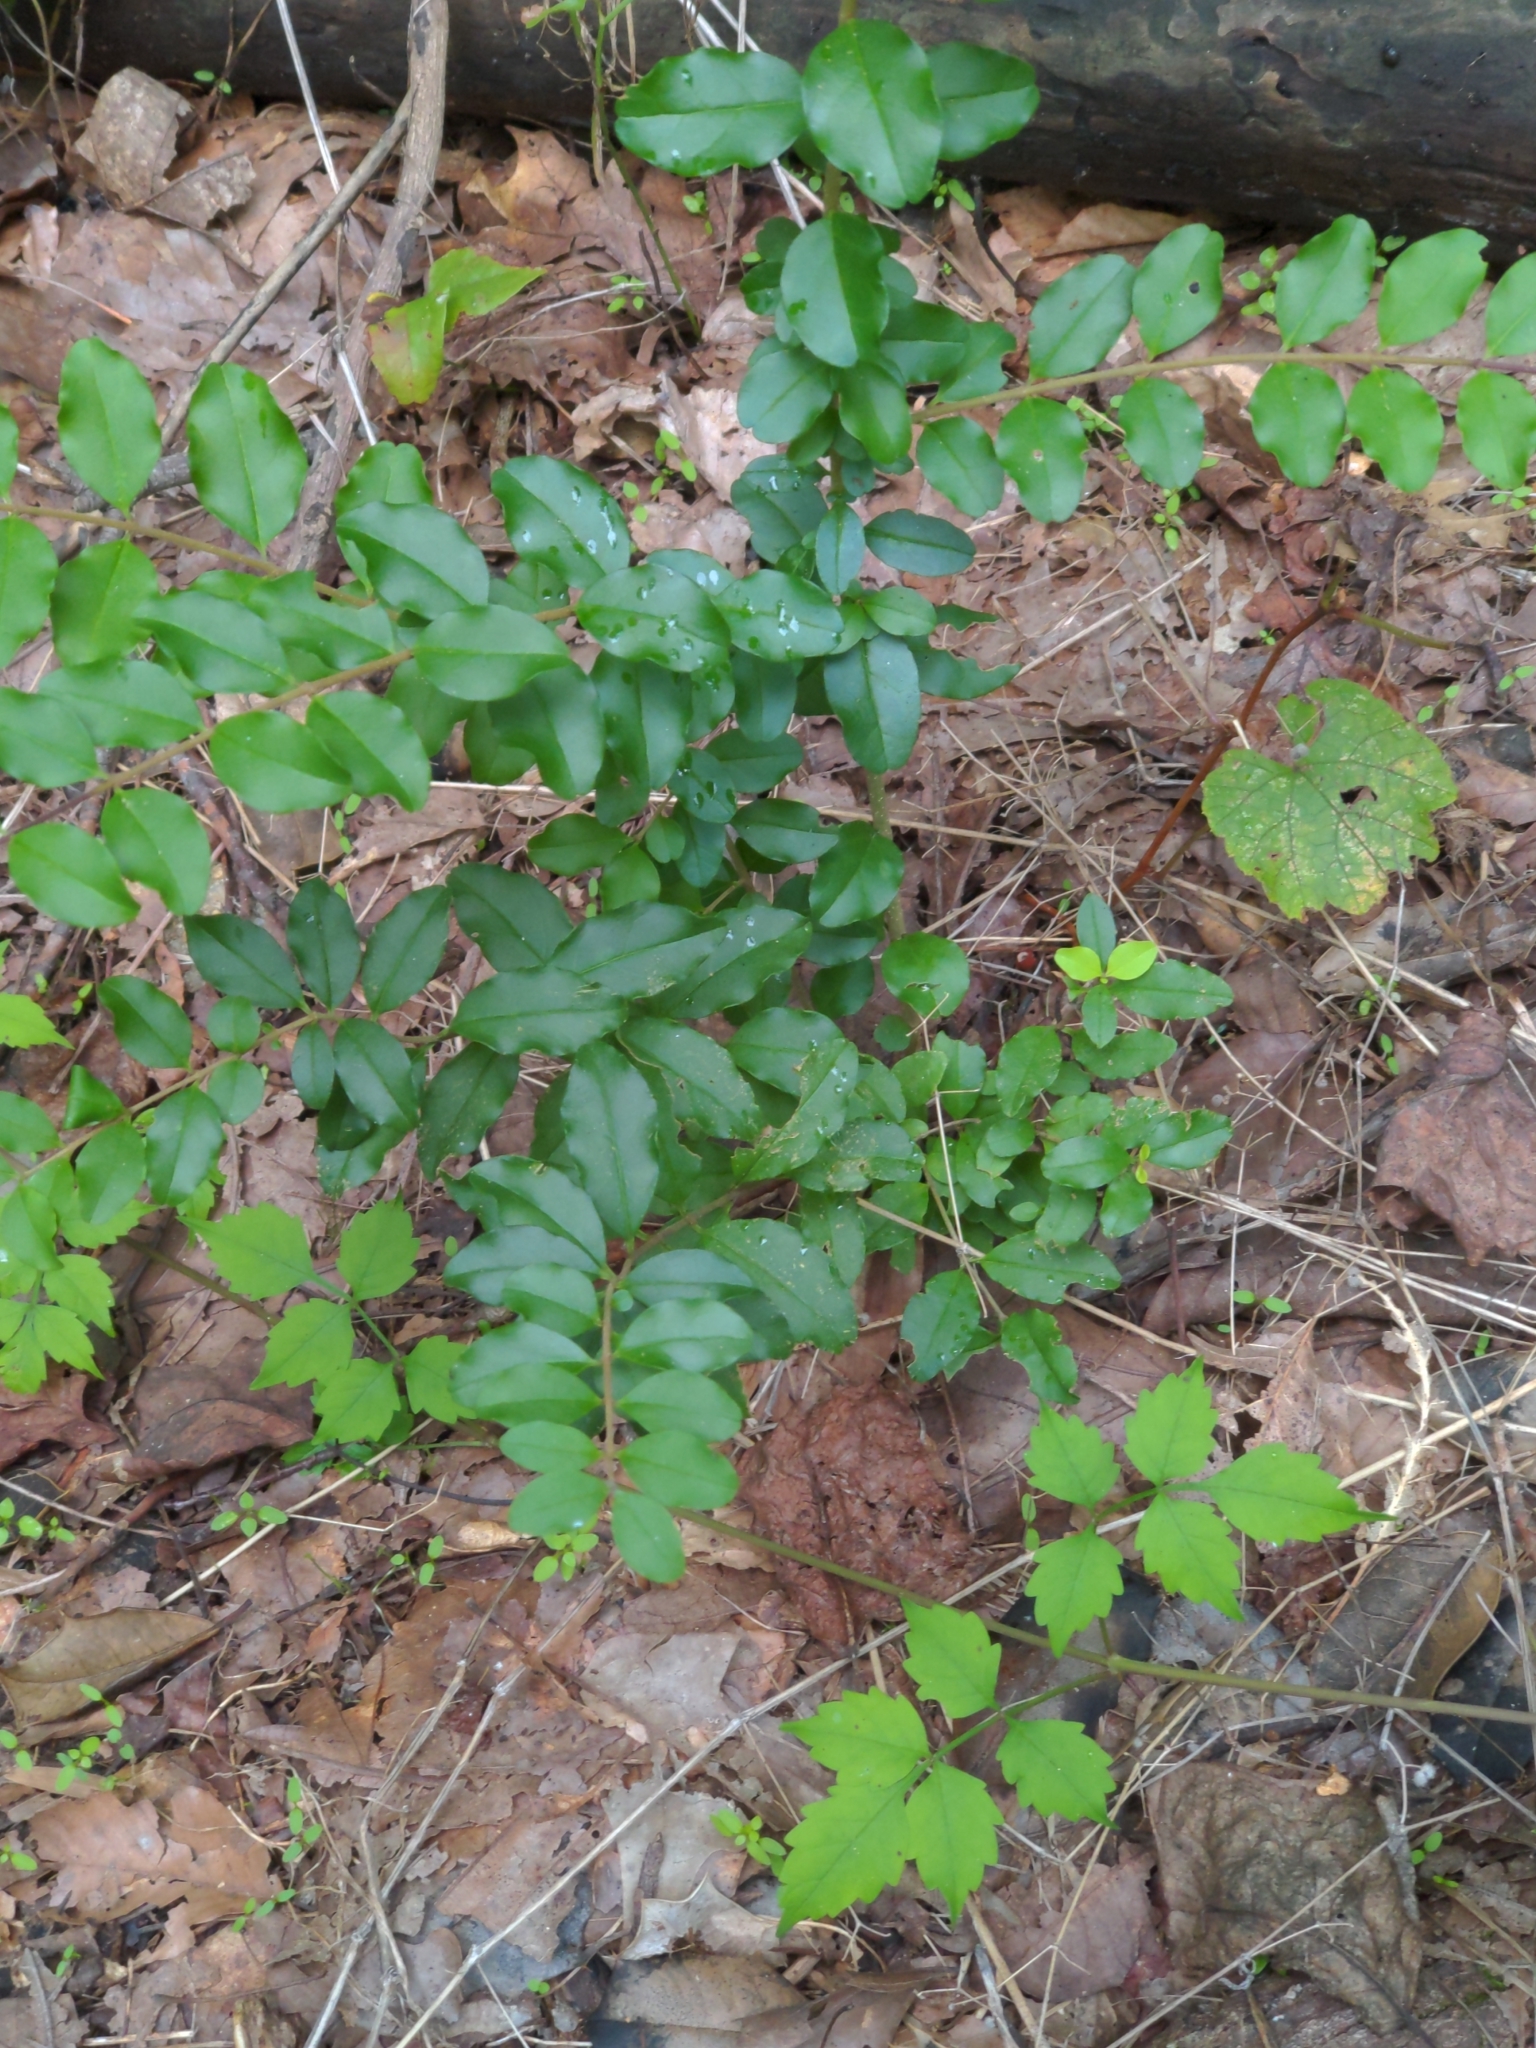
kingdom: Plantae
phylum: Tracheophyta
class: Magnoliopsida
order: Lamiales
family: Oleaceae
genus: Ligustrum
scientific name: Ligustrum sinense
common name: Chinese privet
